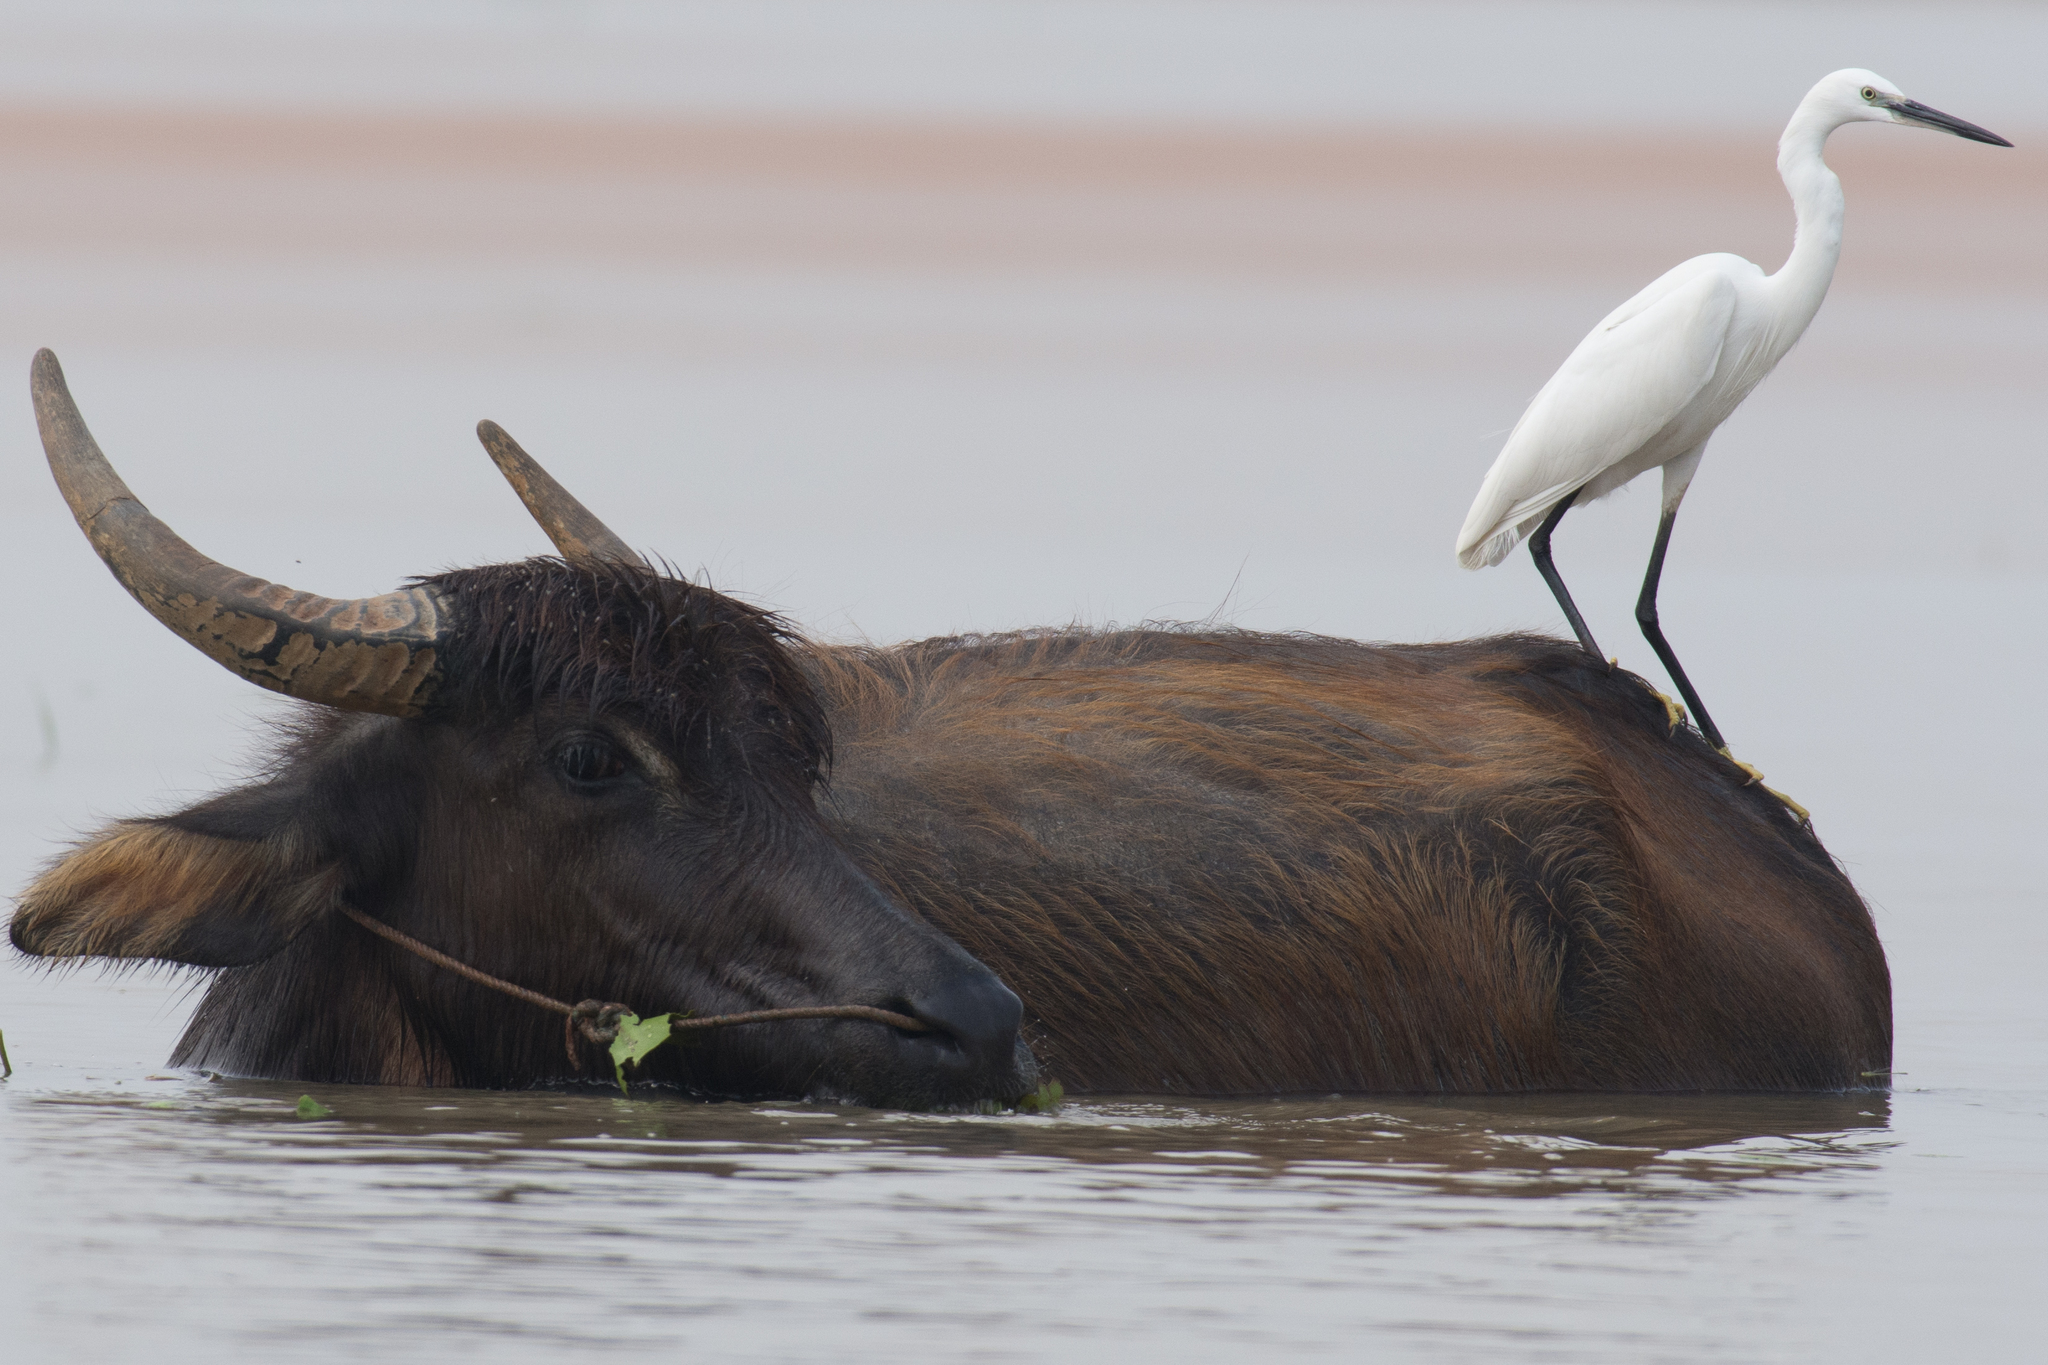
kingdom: Animalia
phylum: Chordata
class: Mammalia
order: Artiodactyla
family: Bovidae
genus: Bubalus
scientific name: Bubalus bubalis
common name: Water buffalo
